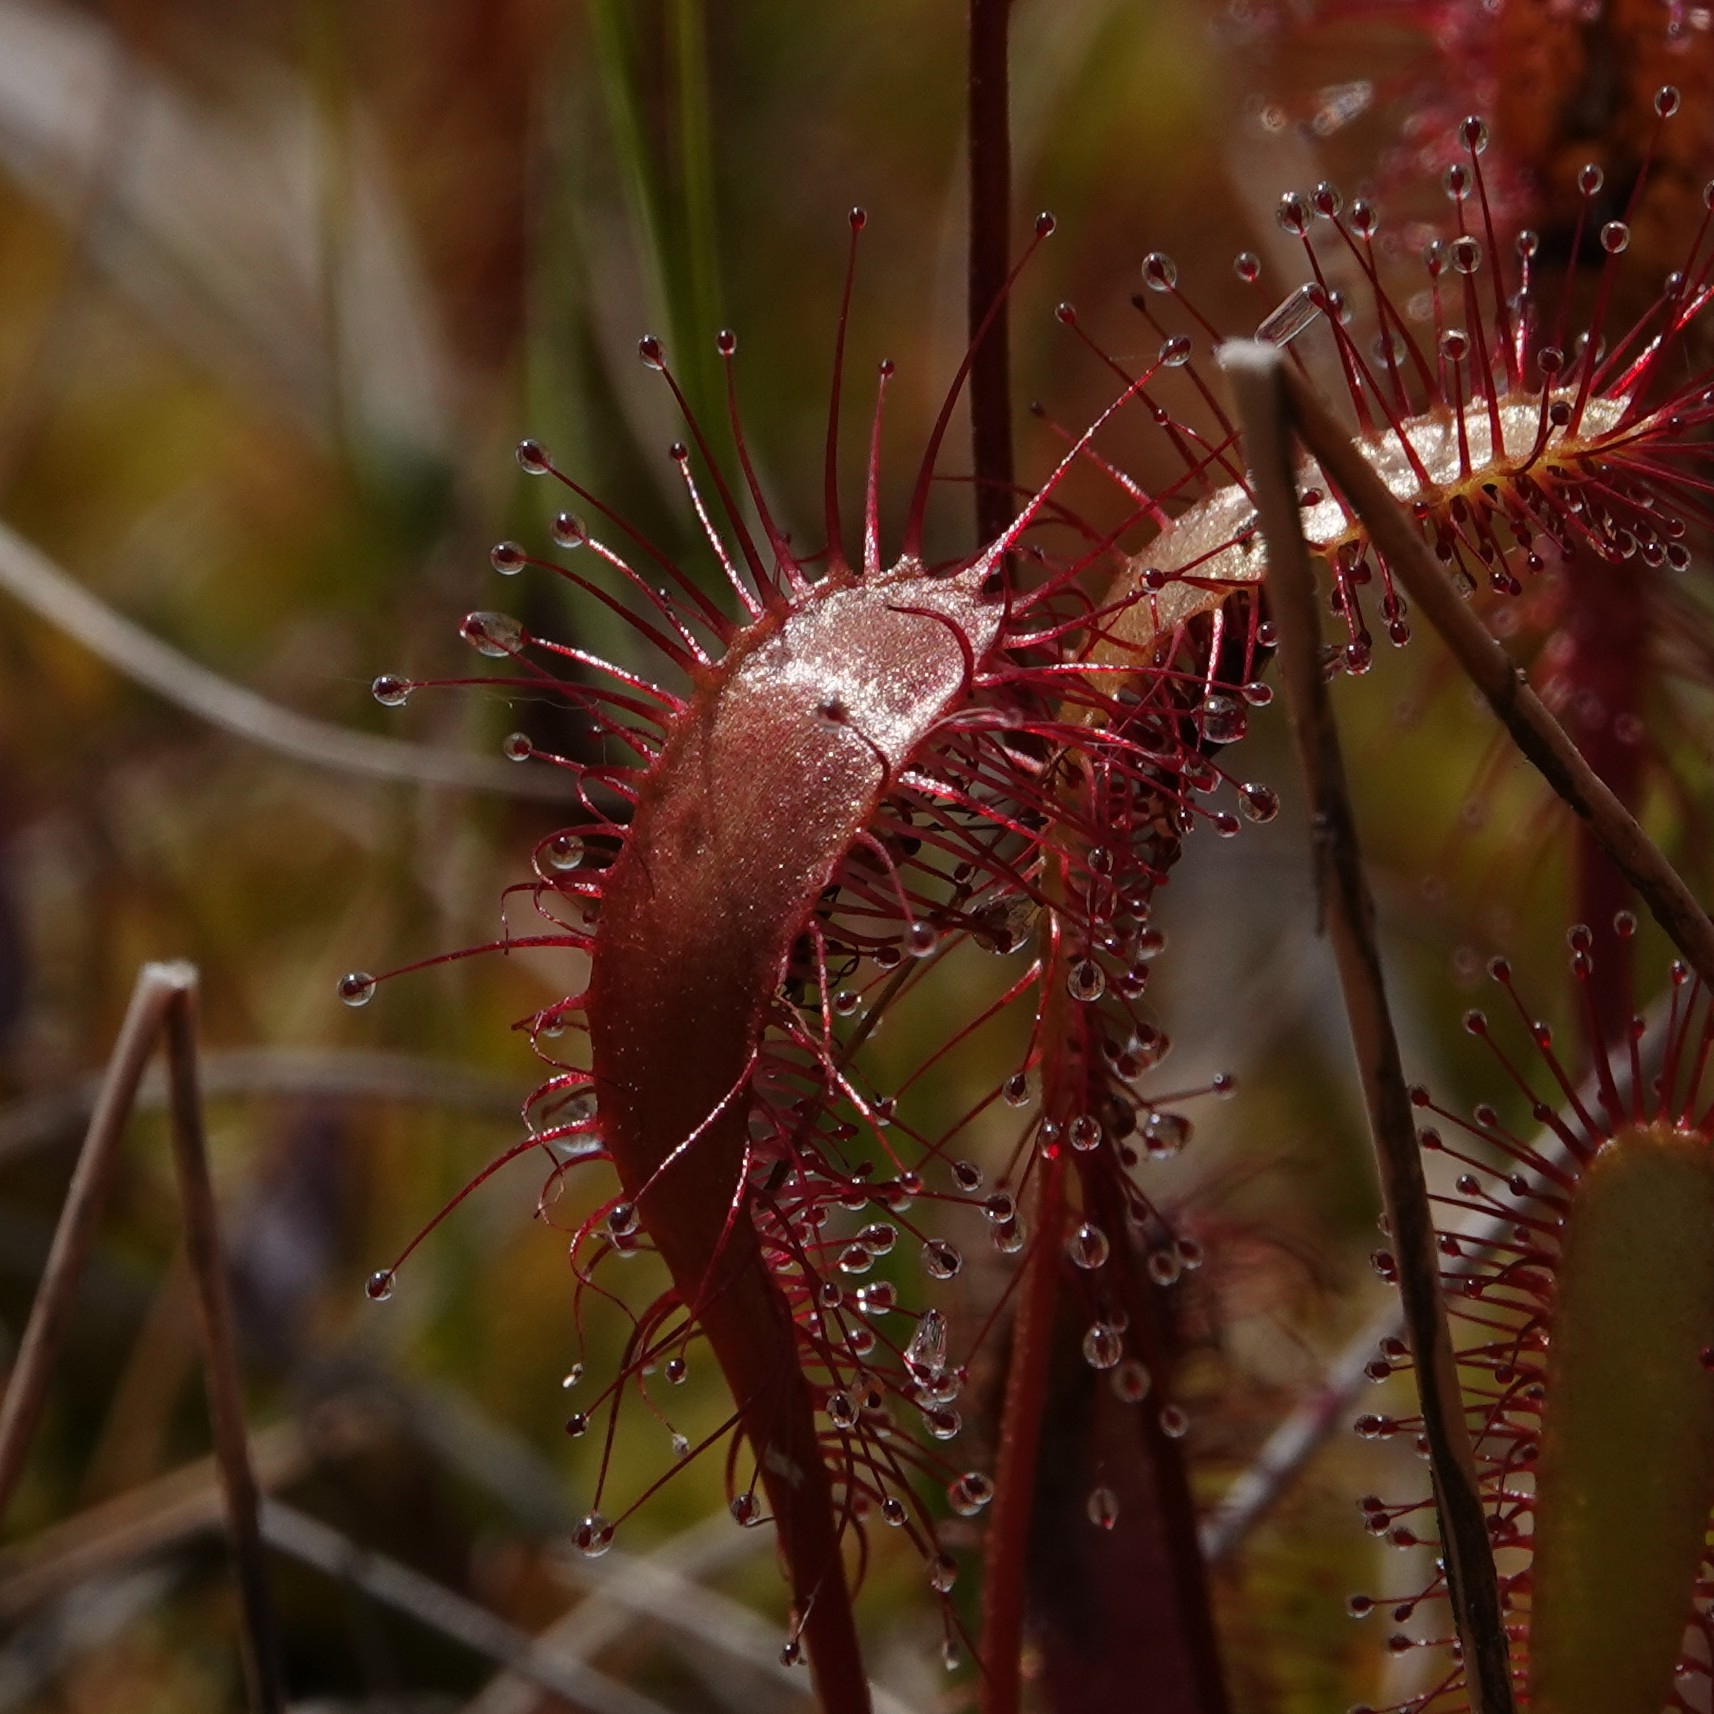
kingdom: Plantae
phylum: Tracheophyta
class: Magnoliopsida
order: Caryophyllales
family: Droseraceae
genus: Drosera
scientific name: Drosera anglica
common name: Great sundew
